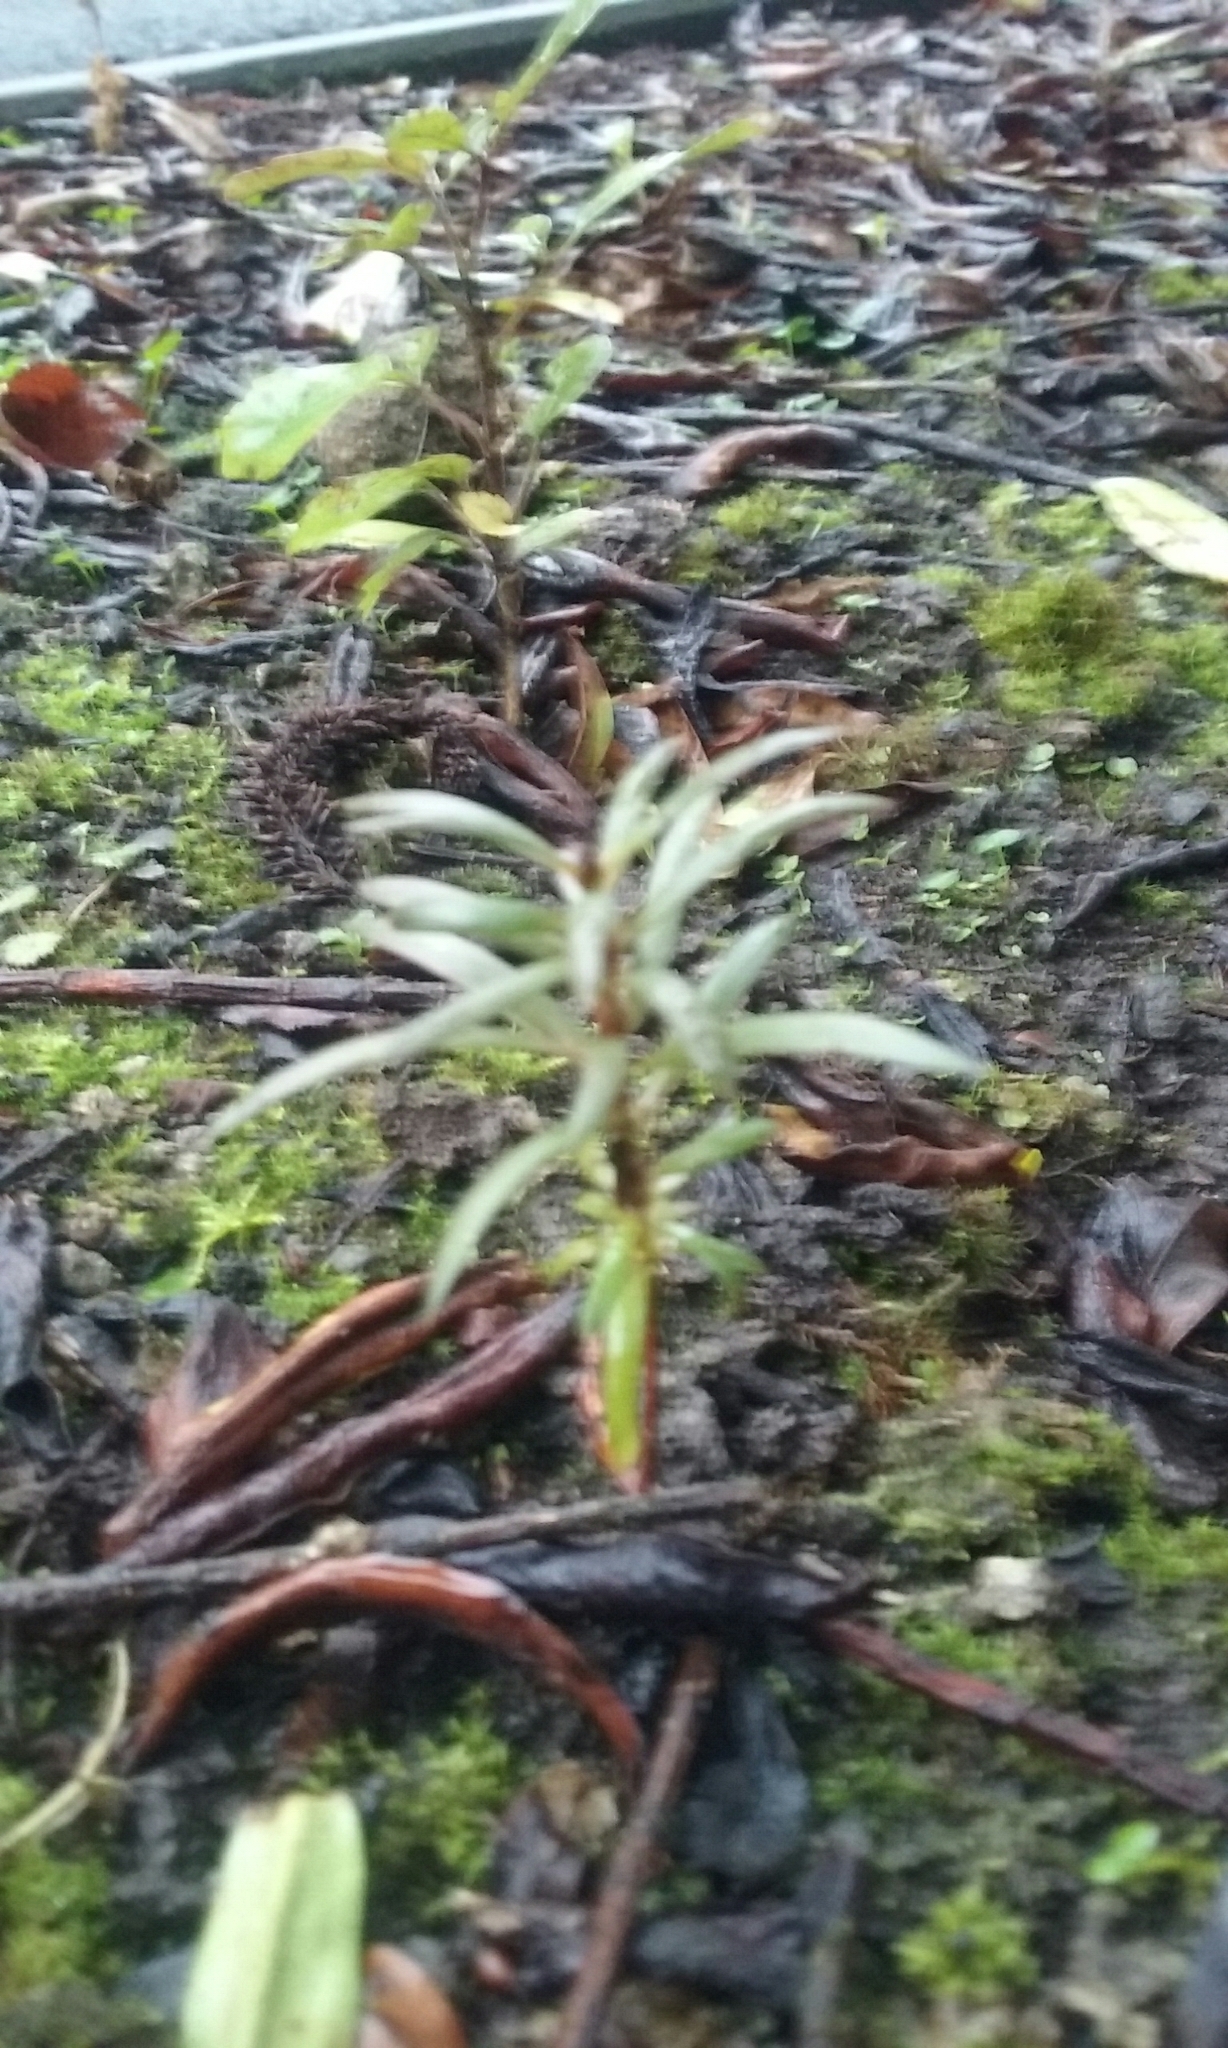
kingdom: Plantae
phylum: Tracheophyta
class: Pinopsida
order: Pinales
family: Podocarpaceae
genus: Podocarpus
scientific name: Podocarpus totara
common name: Totara
